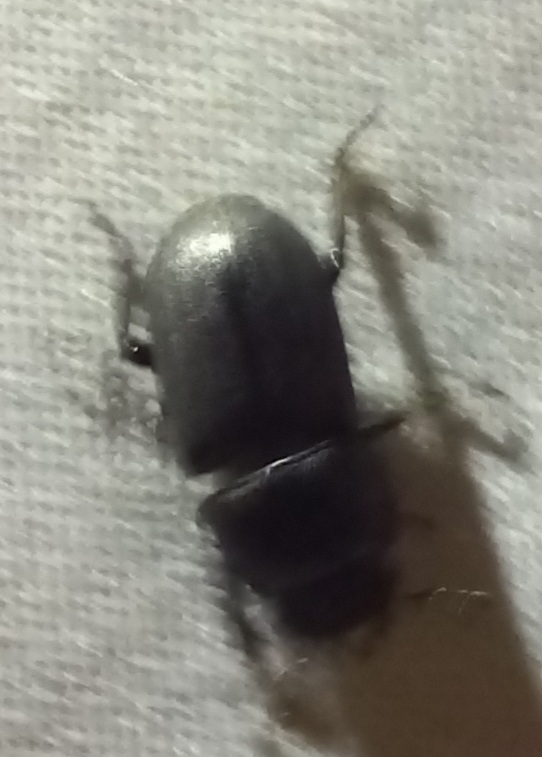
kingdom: Animalia
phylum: Arthropoda
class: Insecta
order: Coleoptera
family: Lucanidae
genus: Dorcus
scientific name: Dorcus parallelipipedus
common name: Lesser stag beetle
